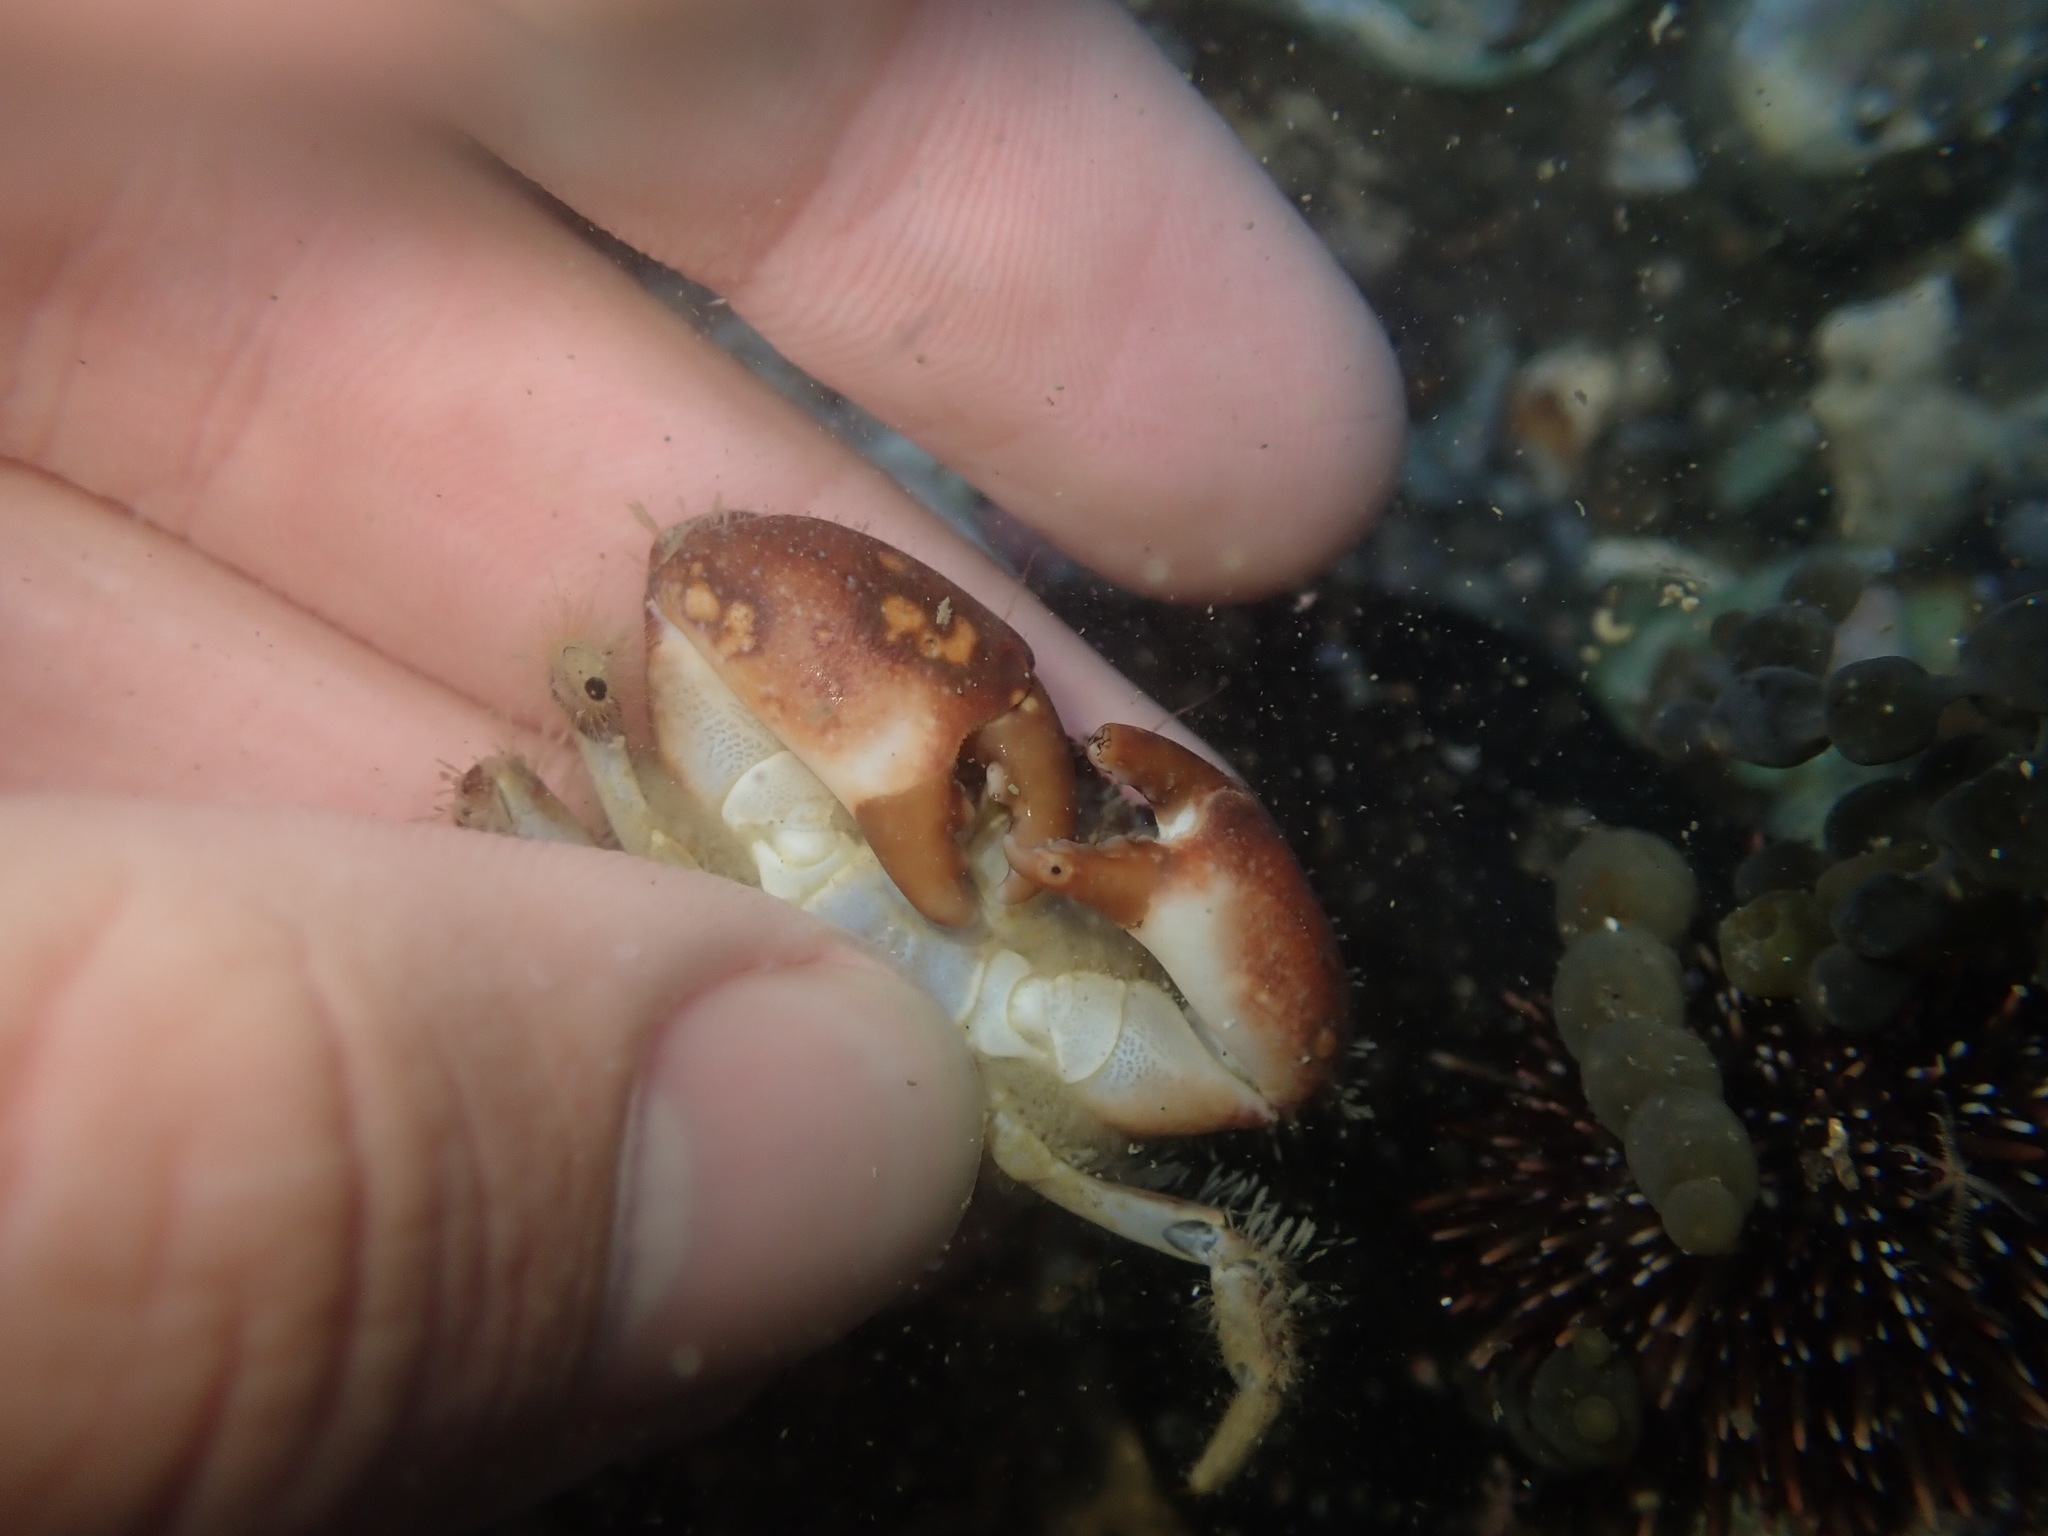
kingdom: Animalia
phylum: Arthropoda
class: Malacostraca
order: Decapoda
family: Pilumnidae
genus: Pilumnopeus
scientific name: Pilumnopeus serratifrons
